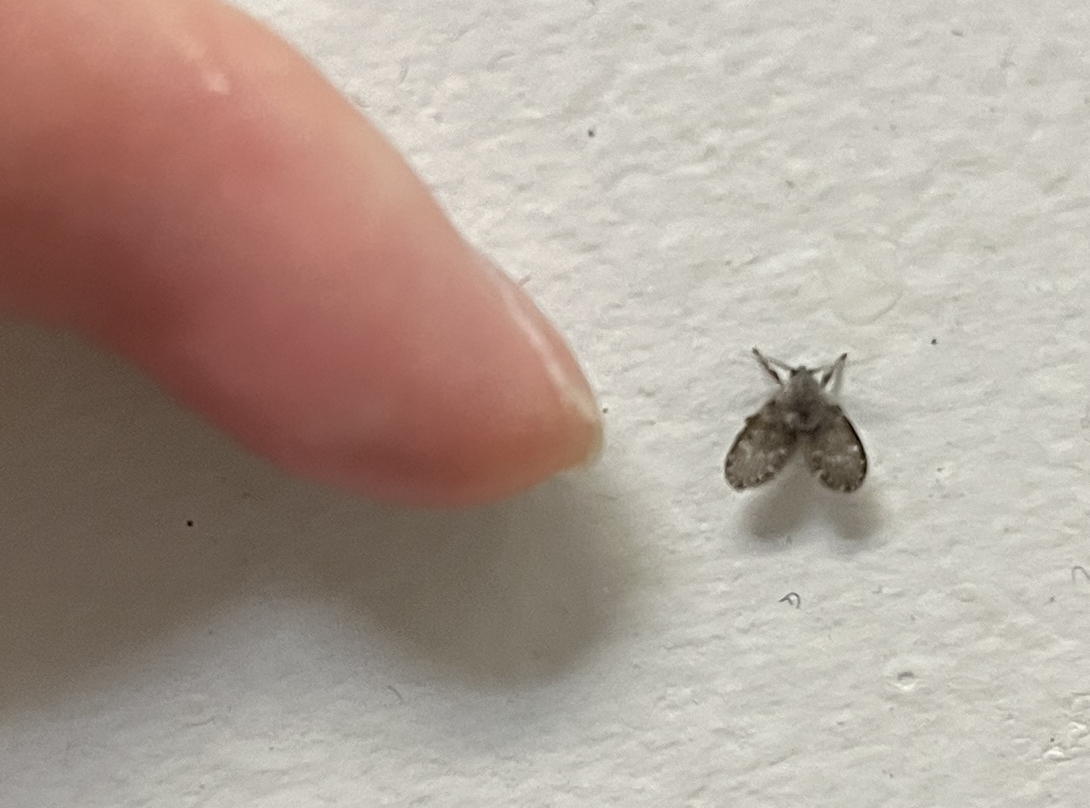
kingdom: Animalia
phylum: Arthropoda
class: Insecta
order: Diptera
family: Psychodidae
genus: Clogmia
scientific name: Clogmia albipunctatus
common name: White-spotted moth fly
